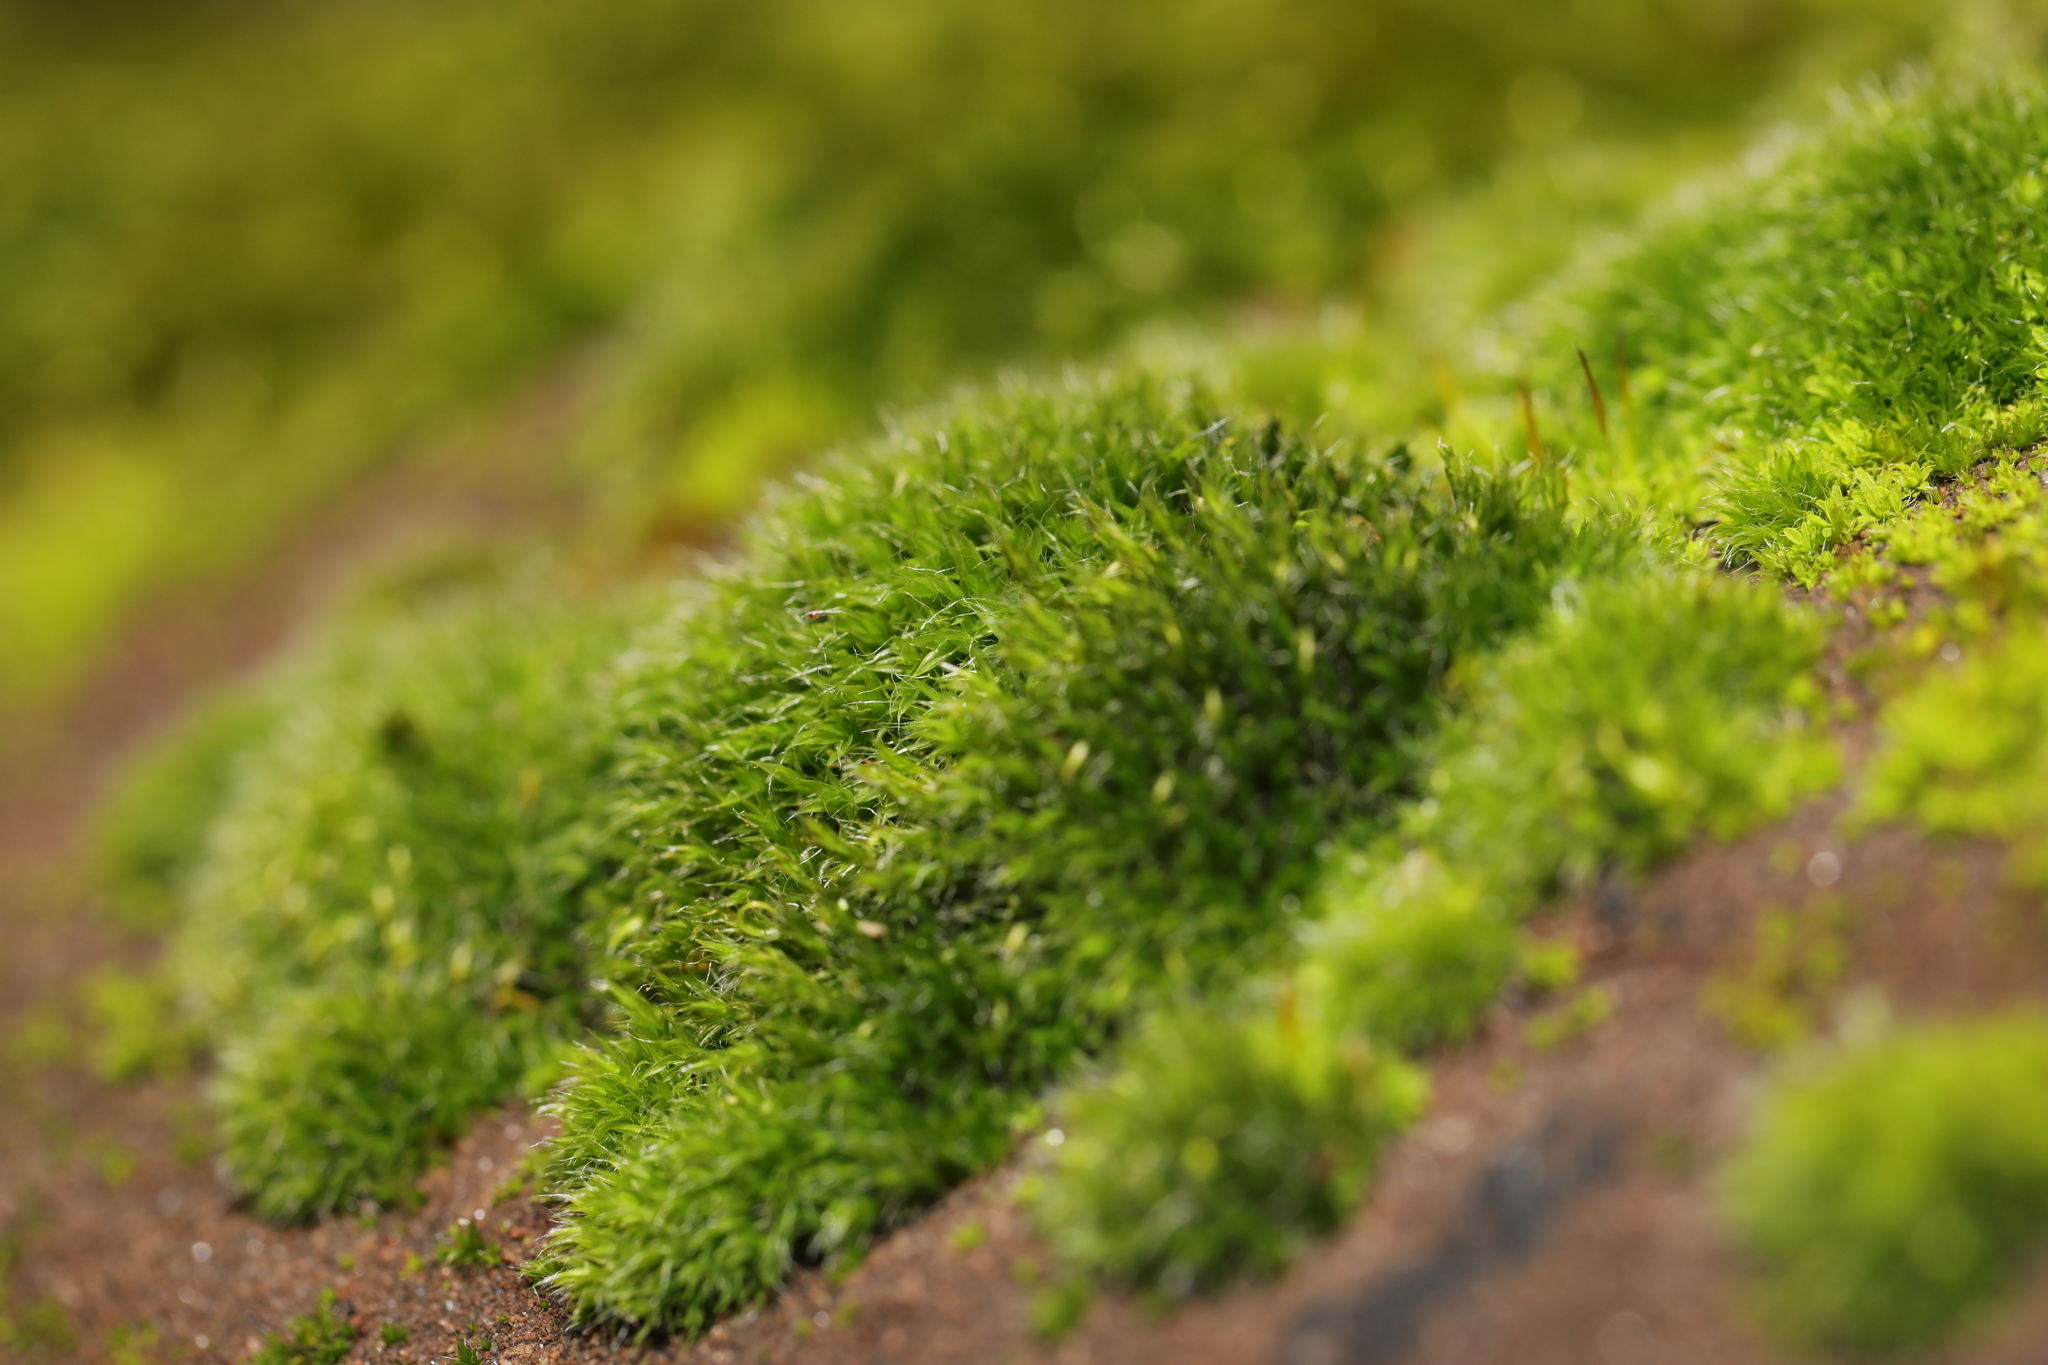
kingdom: Plantae
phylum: Bryophyta
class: Bryopsida
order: Grimmiales
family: Grimmiaceae
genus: Grimmia
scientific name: Grimmia pulvinata
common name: Grey-cushioned grimmia
